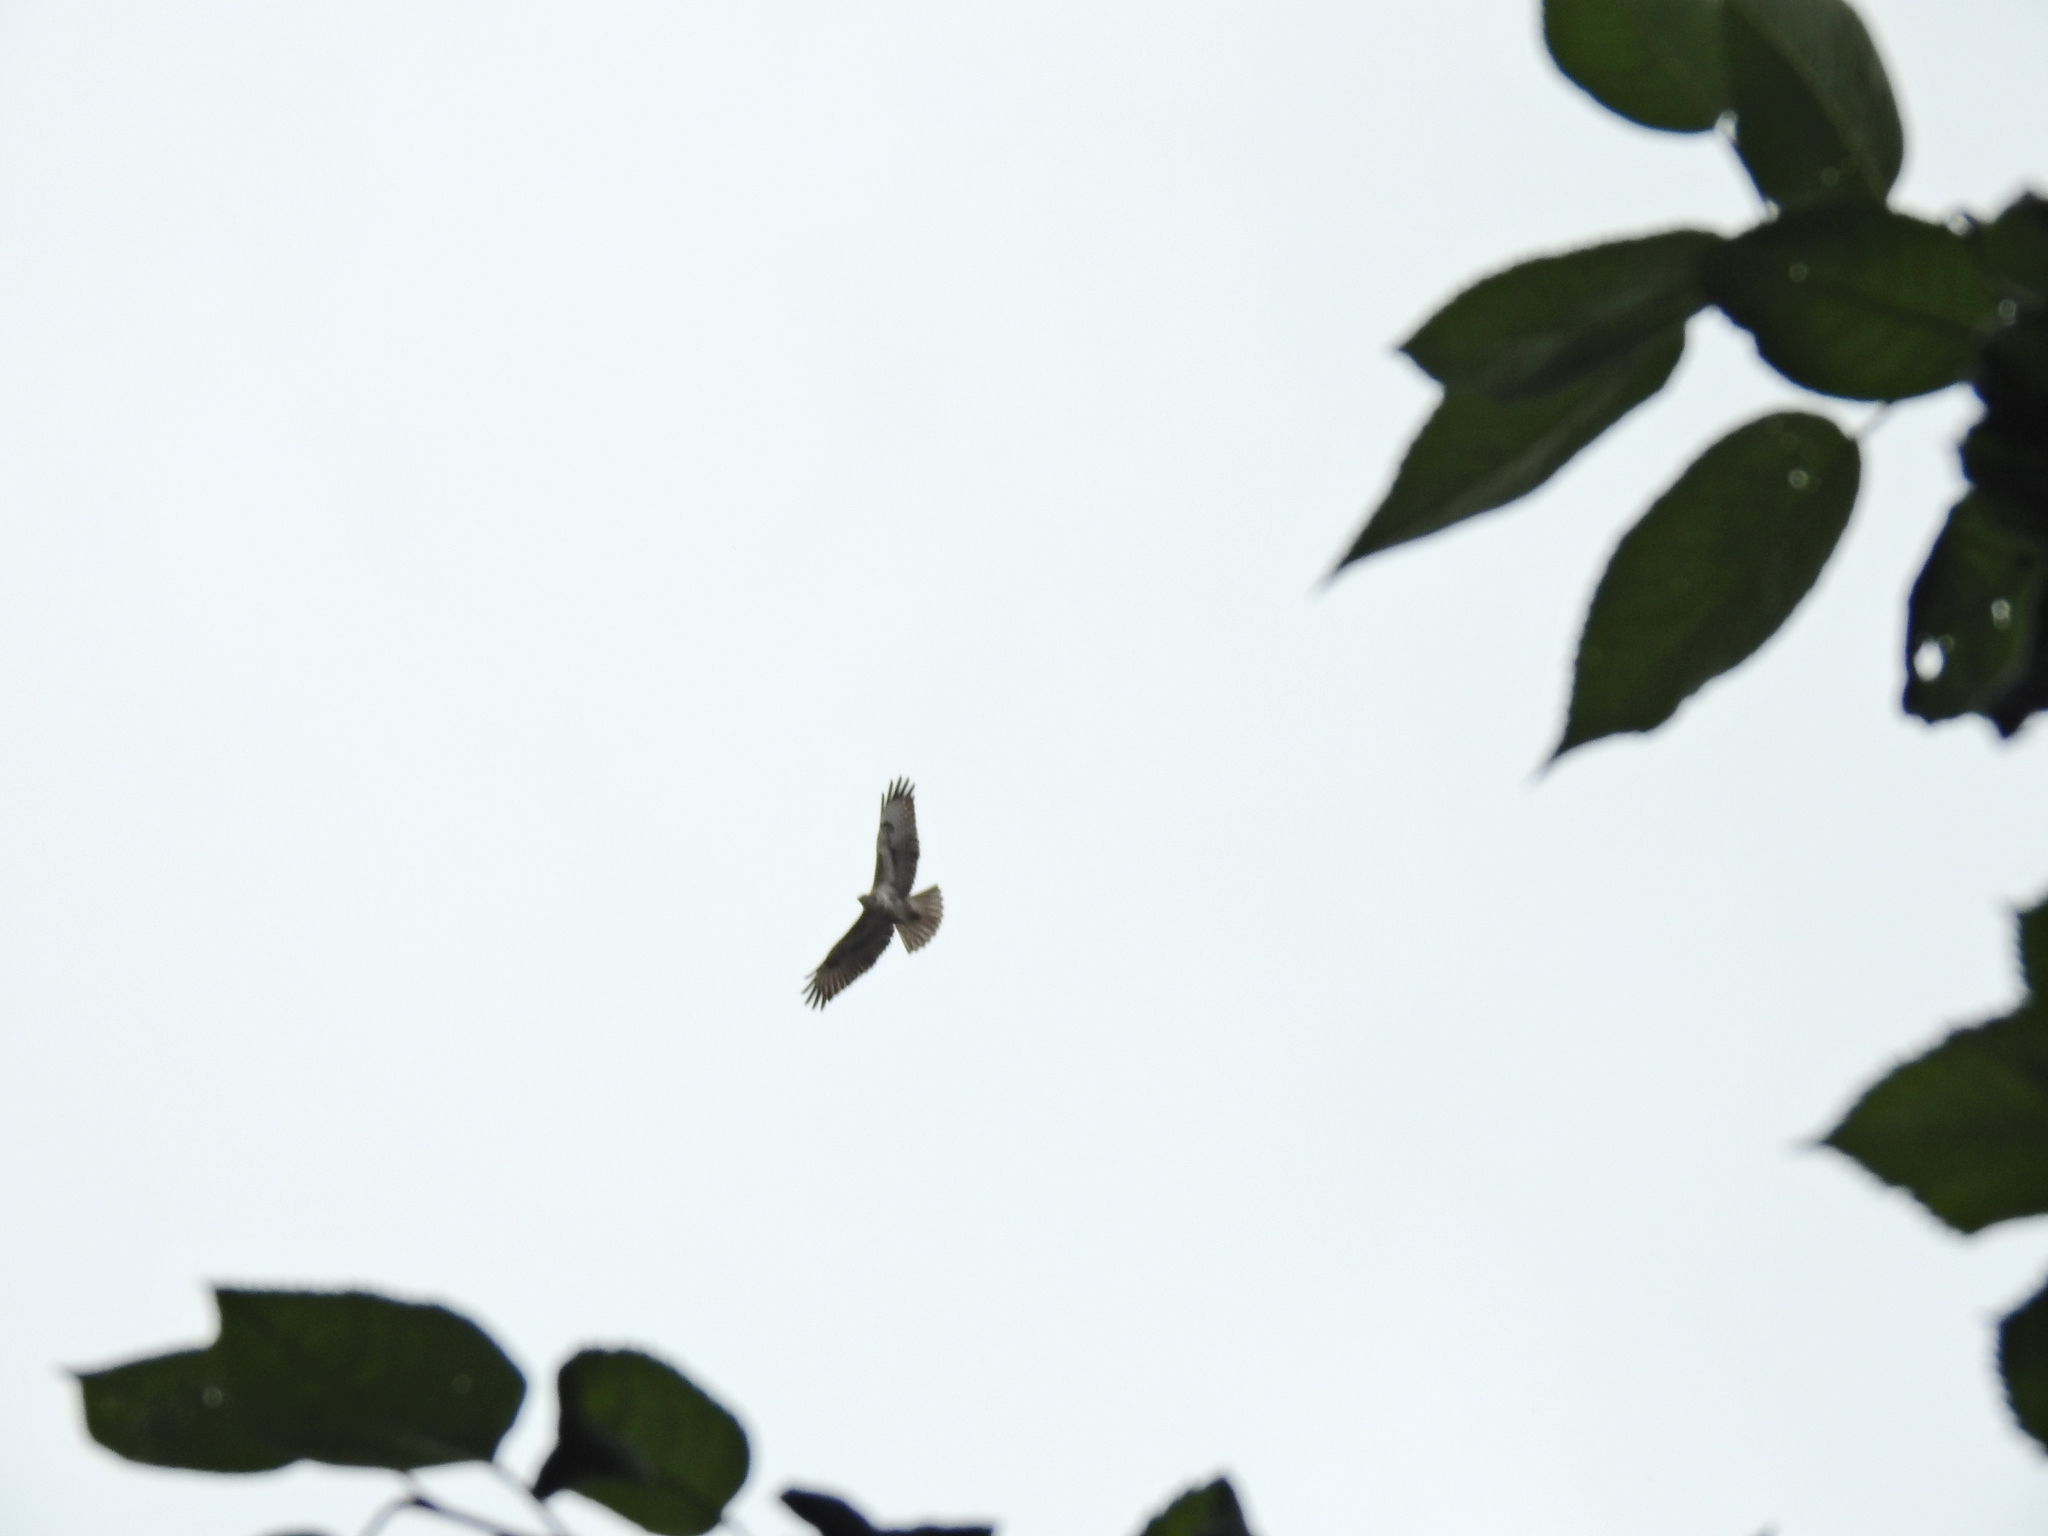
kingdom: Animalia
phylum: Chordata
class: Aves
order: Accipitriformes
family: Accipitridae
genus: Buteo
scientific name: Buteo buteo
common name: Common buzzard
